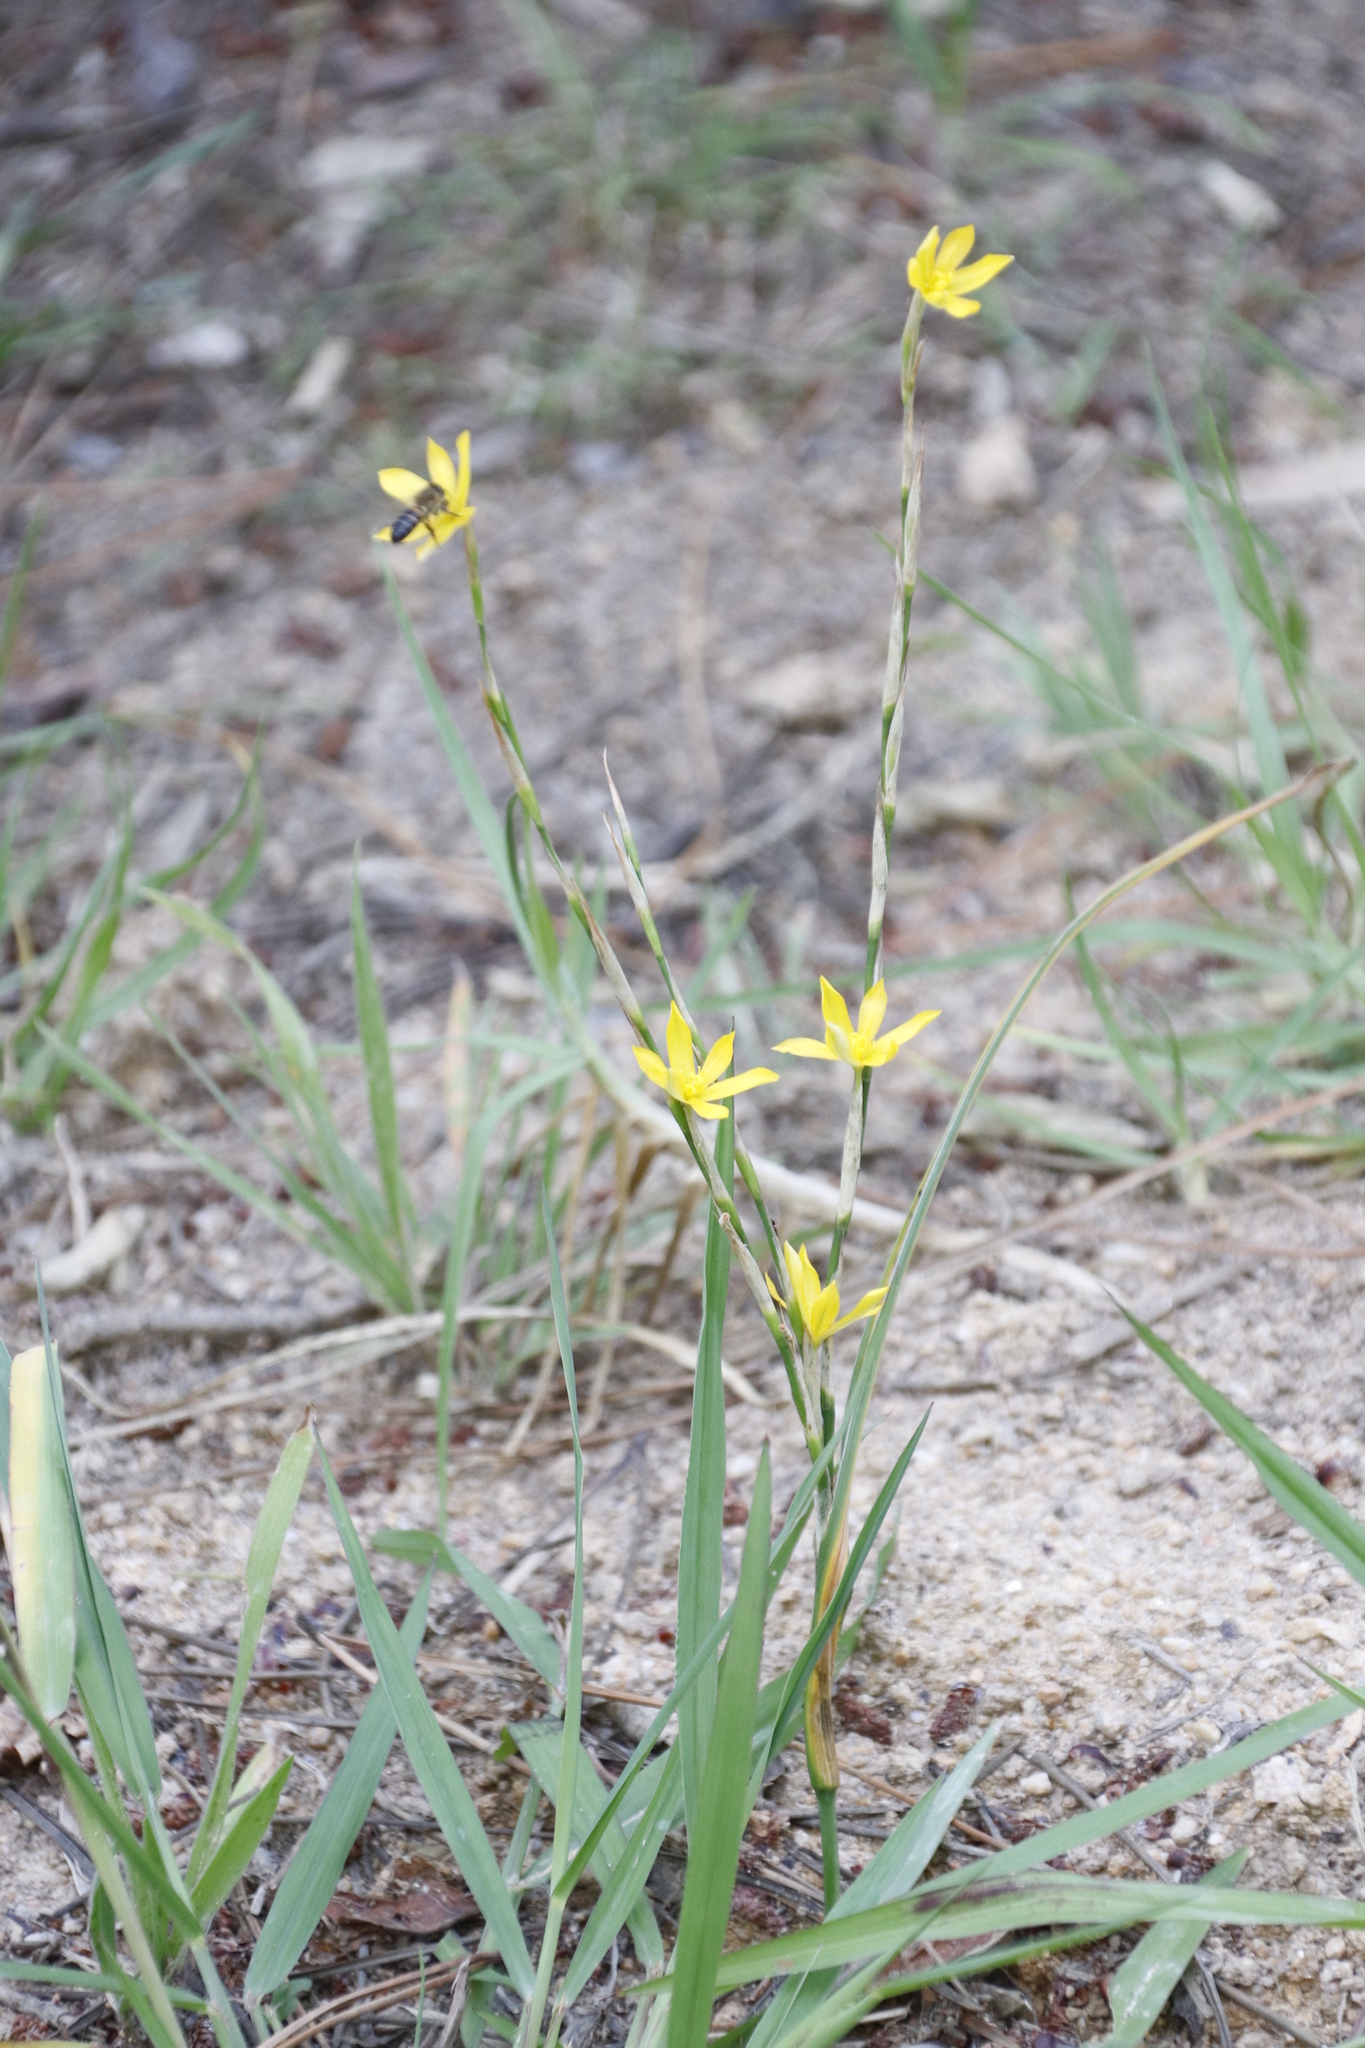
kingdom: Plantae
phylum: Tracheophyta
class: Liliopsida
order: Asparagales
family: Iridaceae
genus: Moraea
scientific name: Moraea virgata
